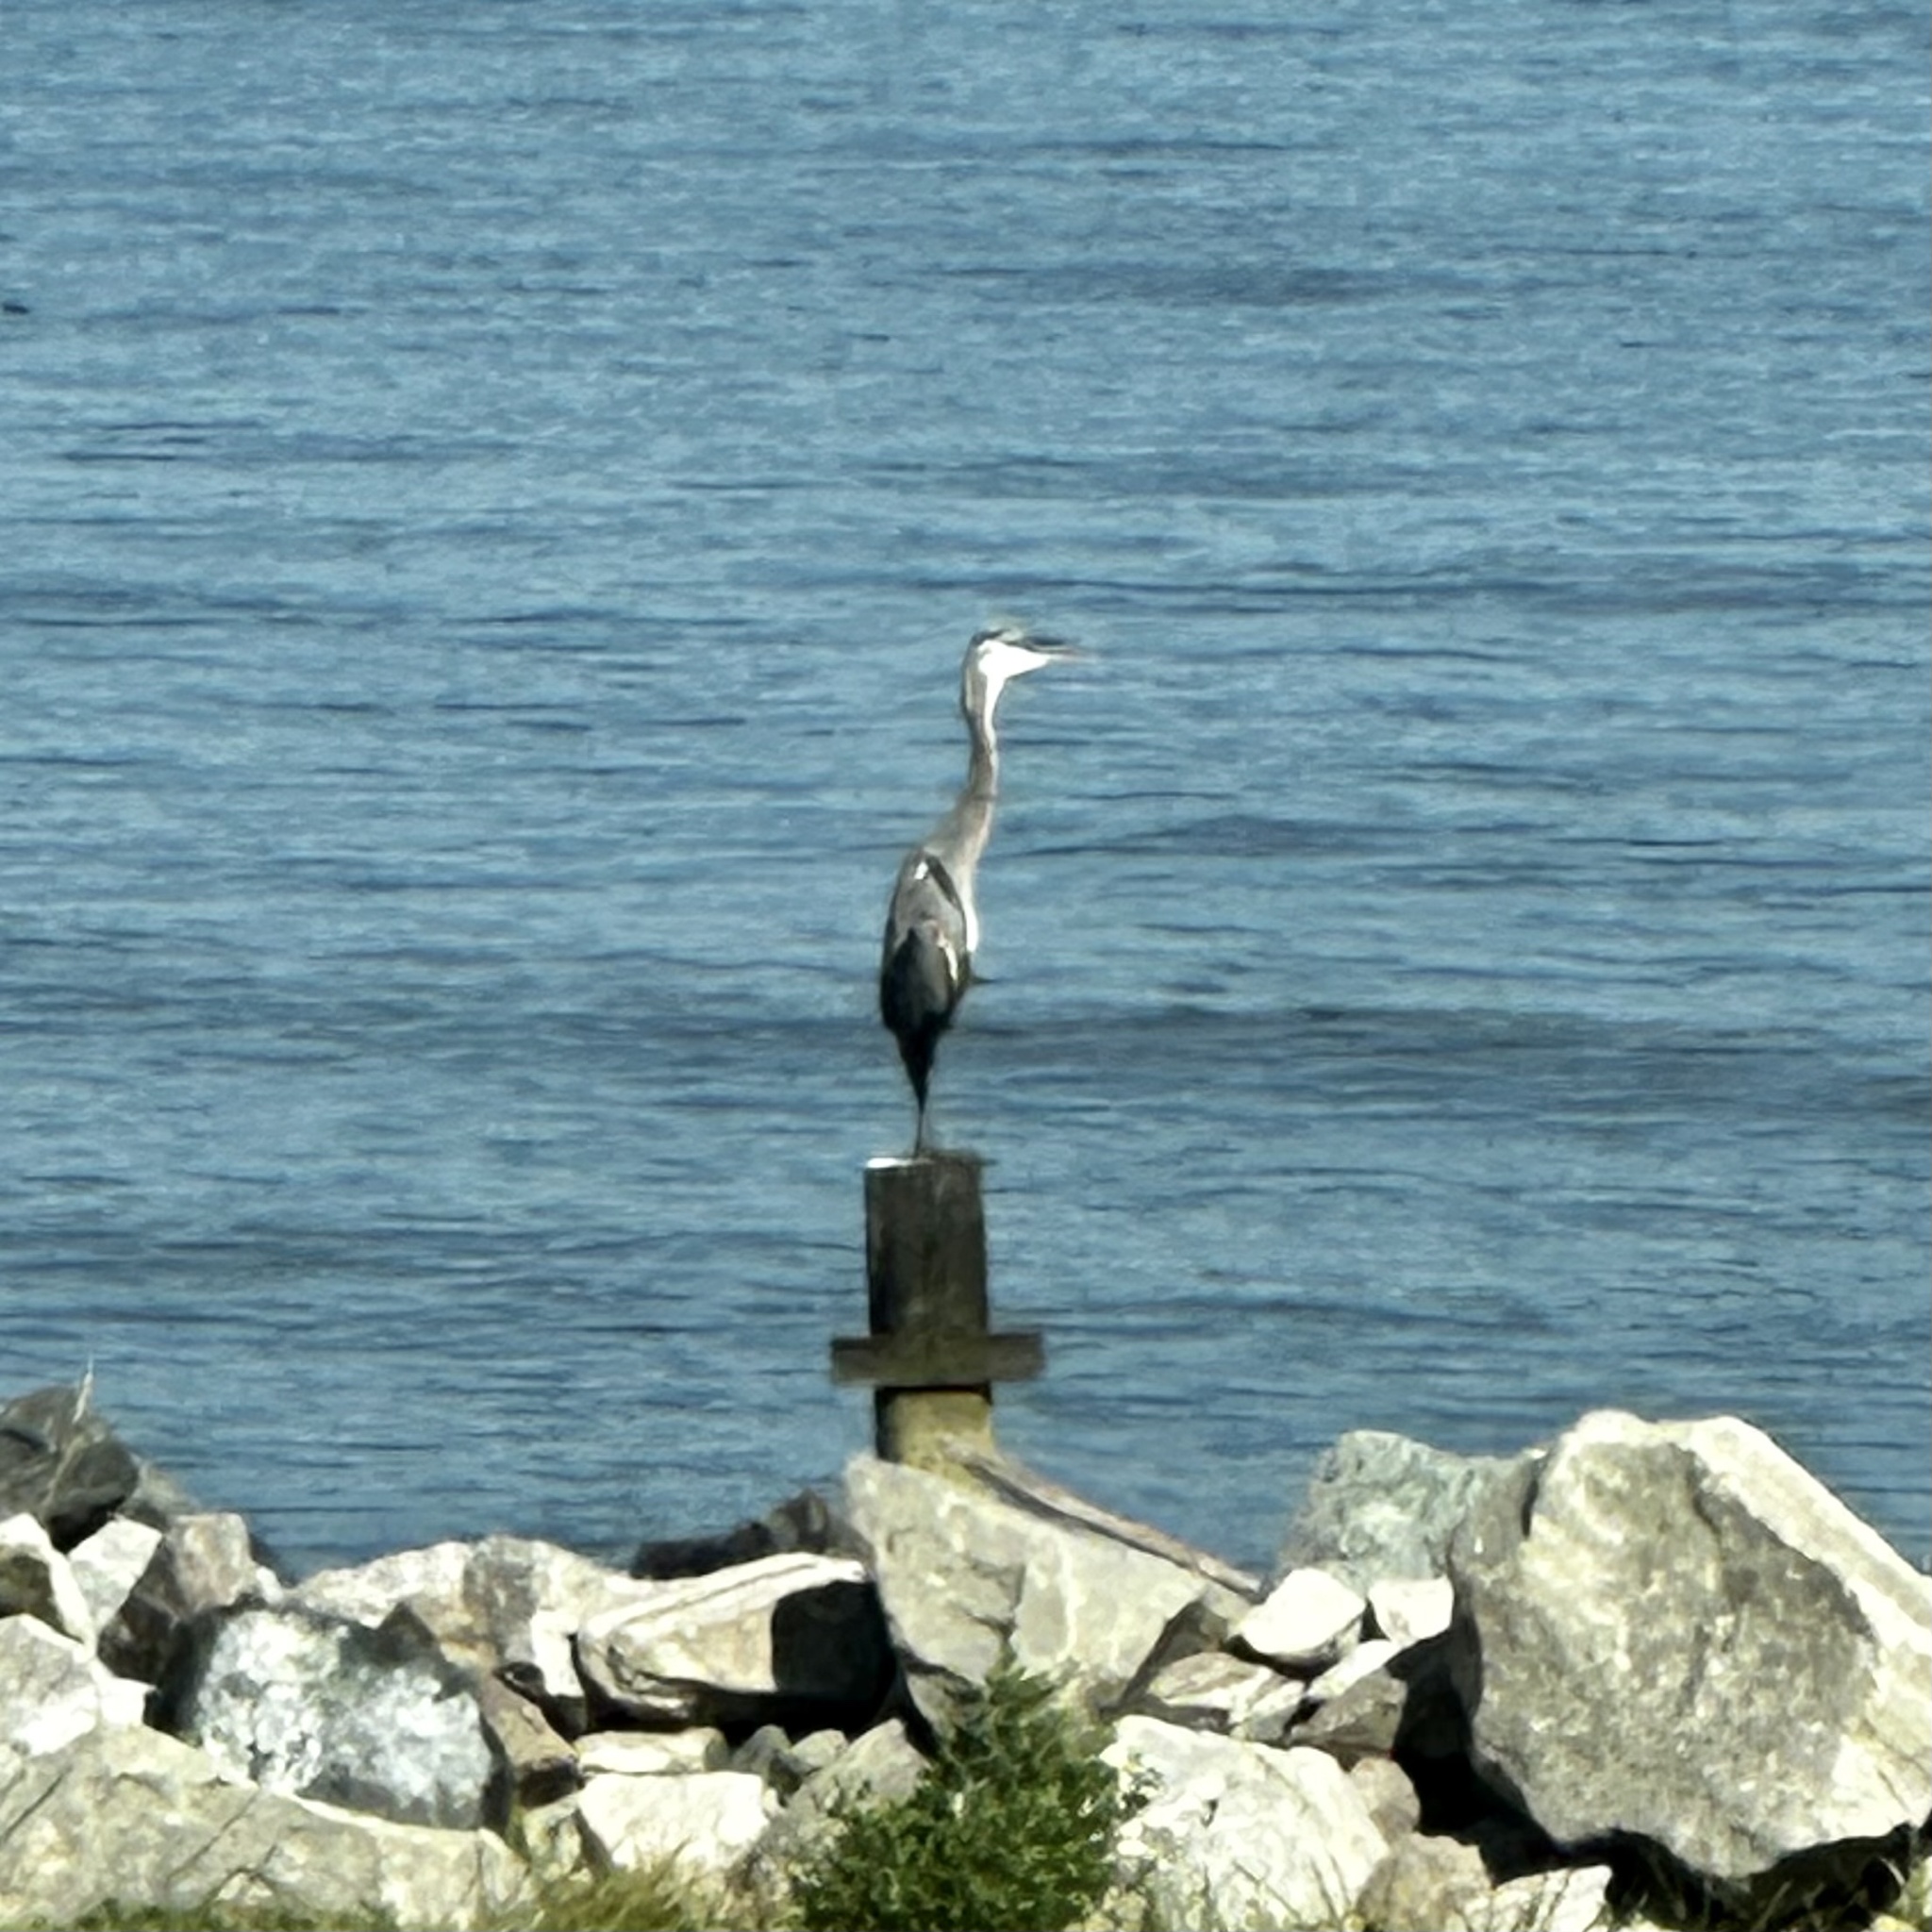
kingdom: Animalia
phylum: Chordata
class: Aves
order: Pelecaniformes
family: Ardeidae
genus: Ardea
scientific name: Ardea herodias
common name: Great blue heron
